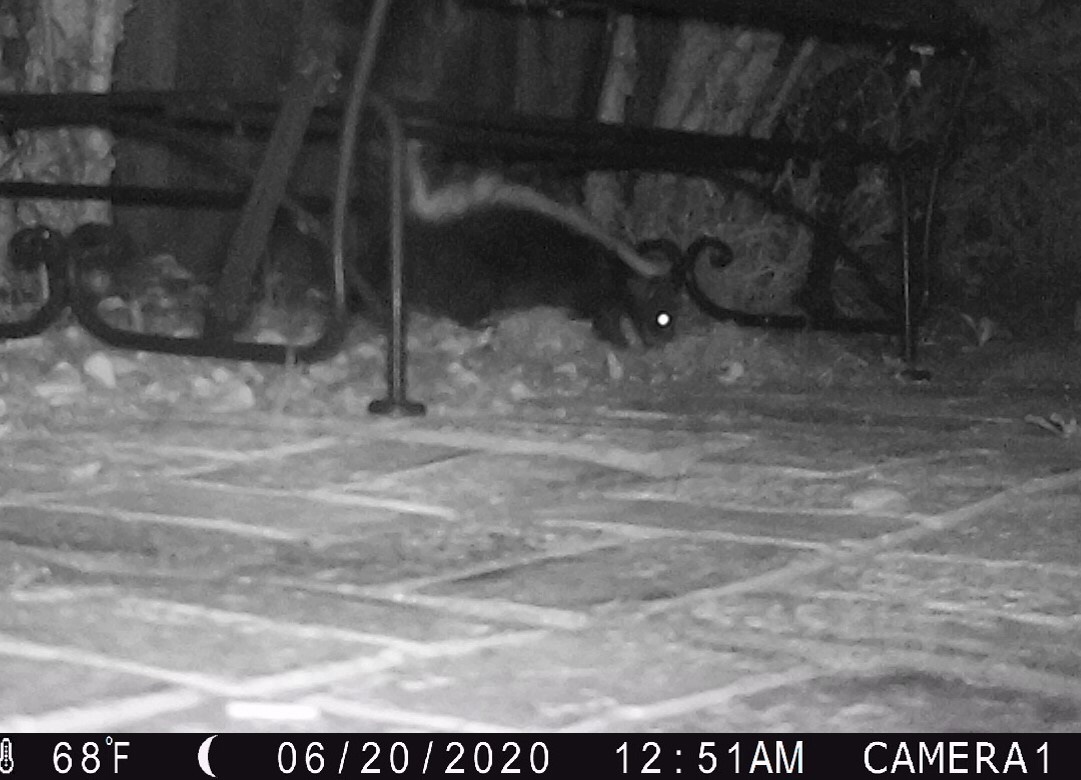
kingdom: Animalia
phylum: Chordata
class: Mammalia
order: Carnivora
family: Mephitidae
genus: Mephitis
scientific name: Mephitis mephitis
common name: Striped skunk
